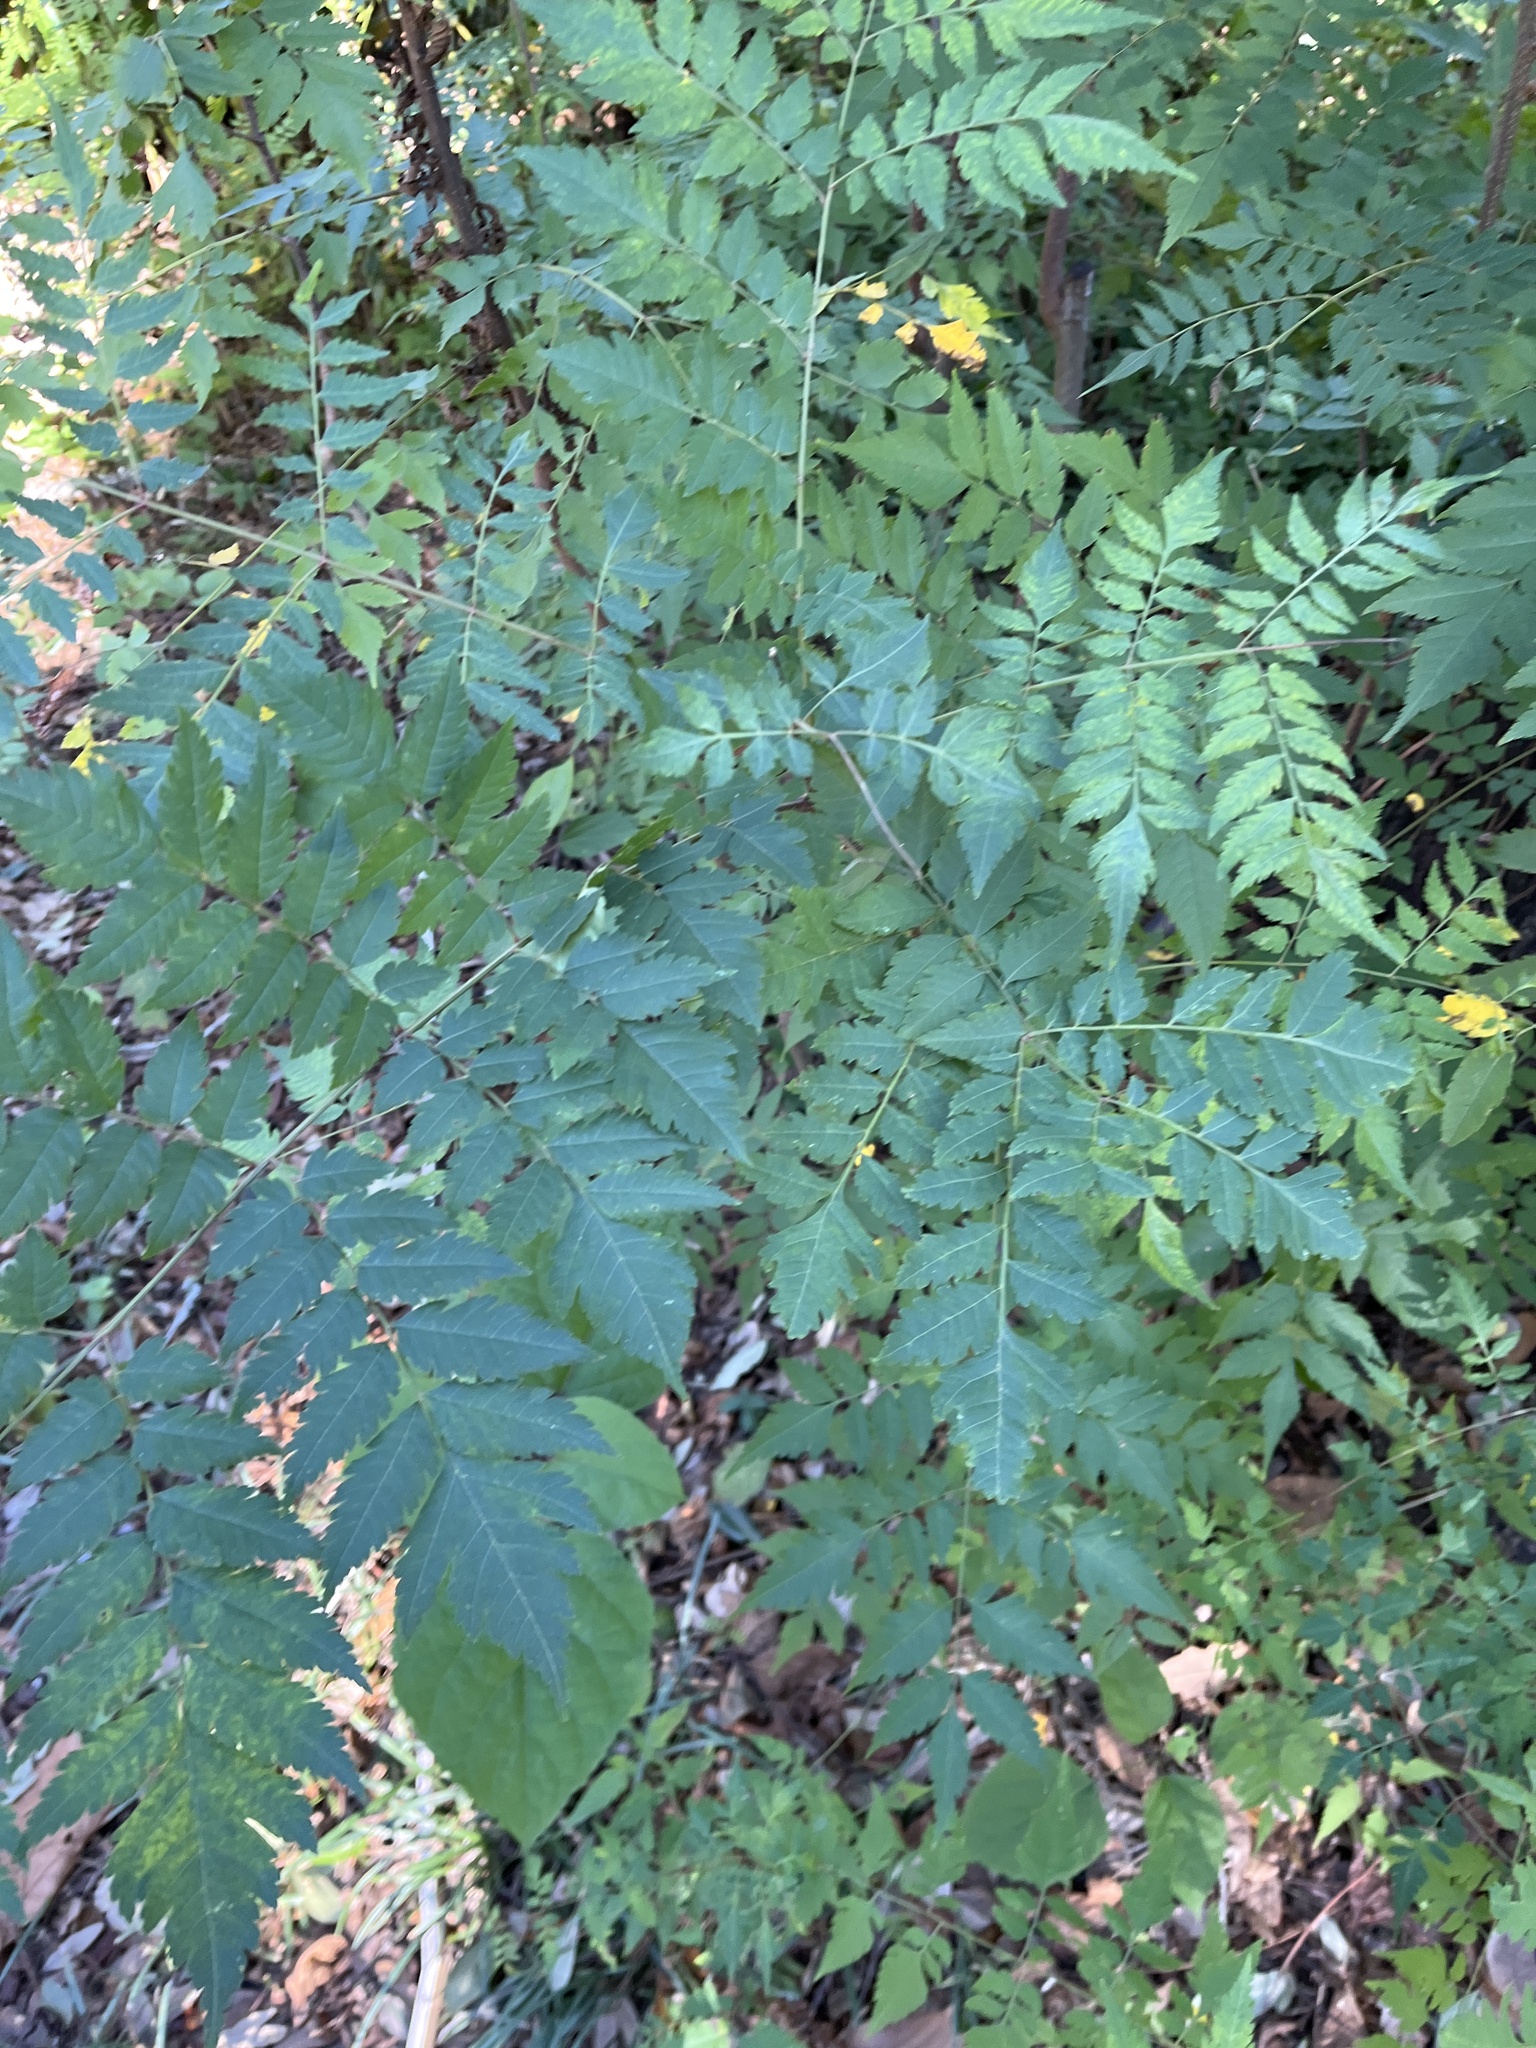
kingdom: Plantae
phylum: Tracheophyta
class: Magnoliopsida
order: Sapindales
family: Sapindaceae
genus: Koelreuteria
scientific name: Koelreuteria elegans
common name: Chinese flame tree
